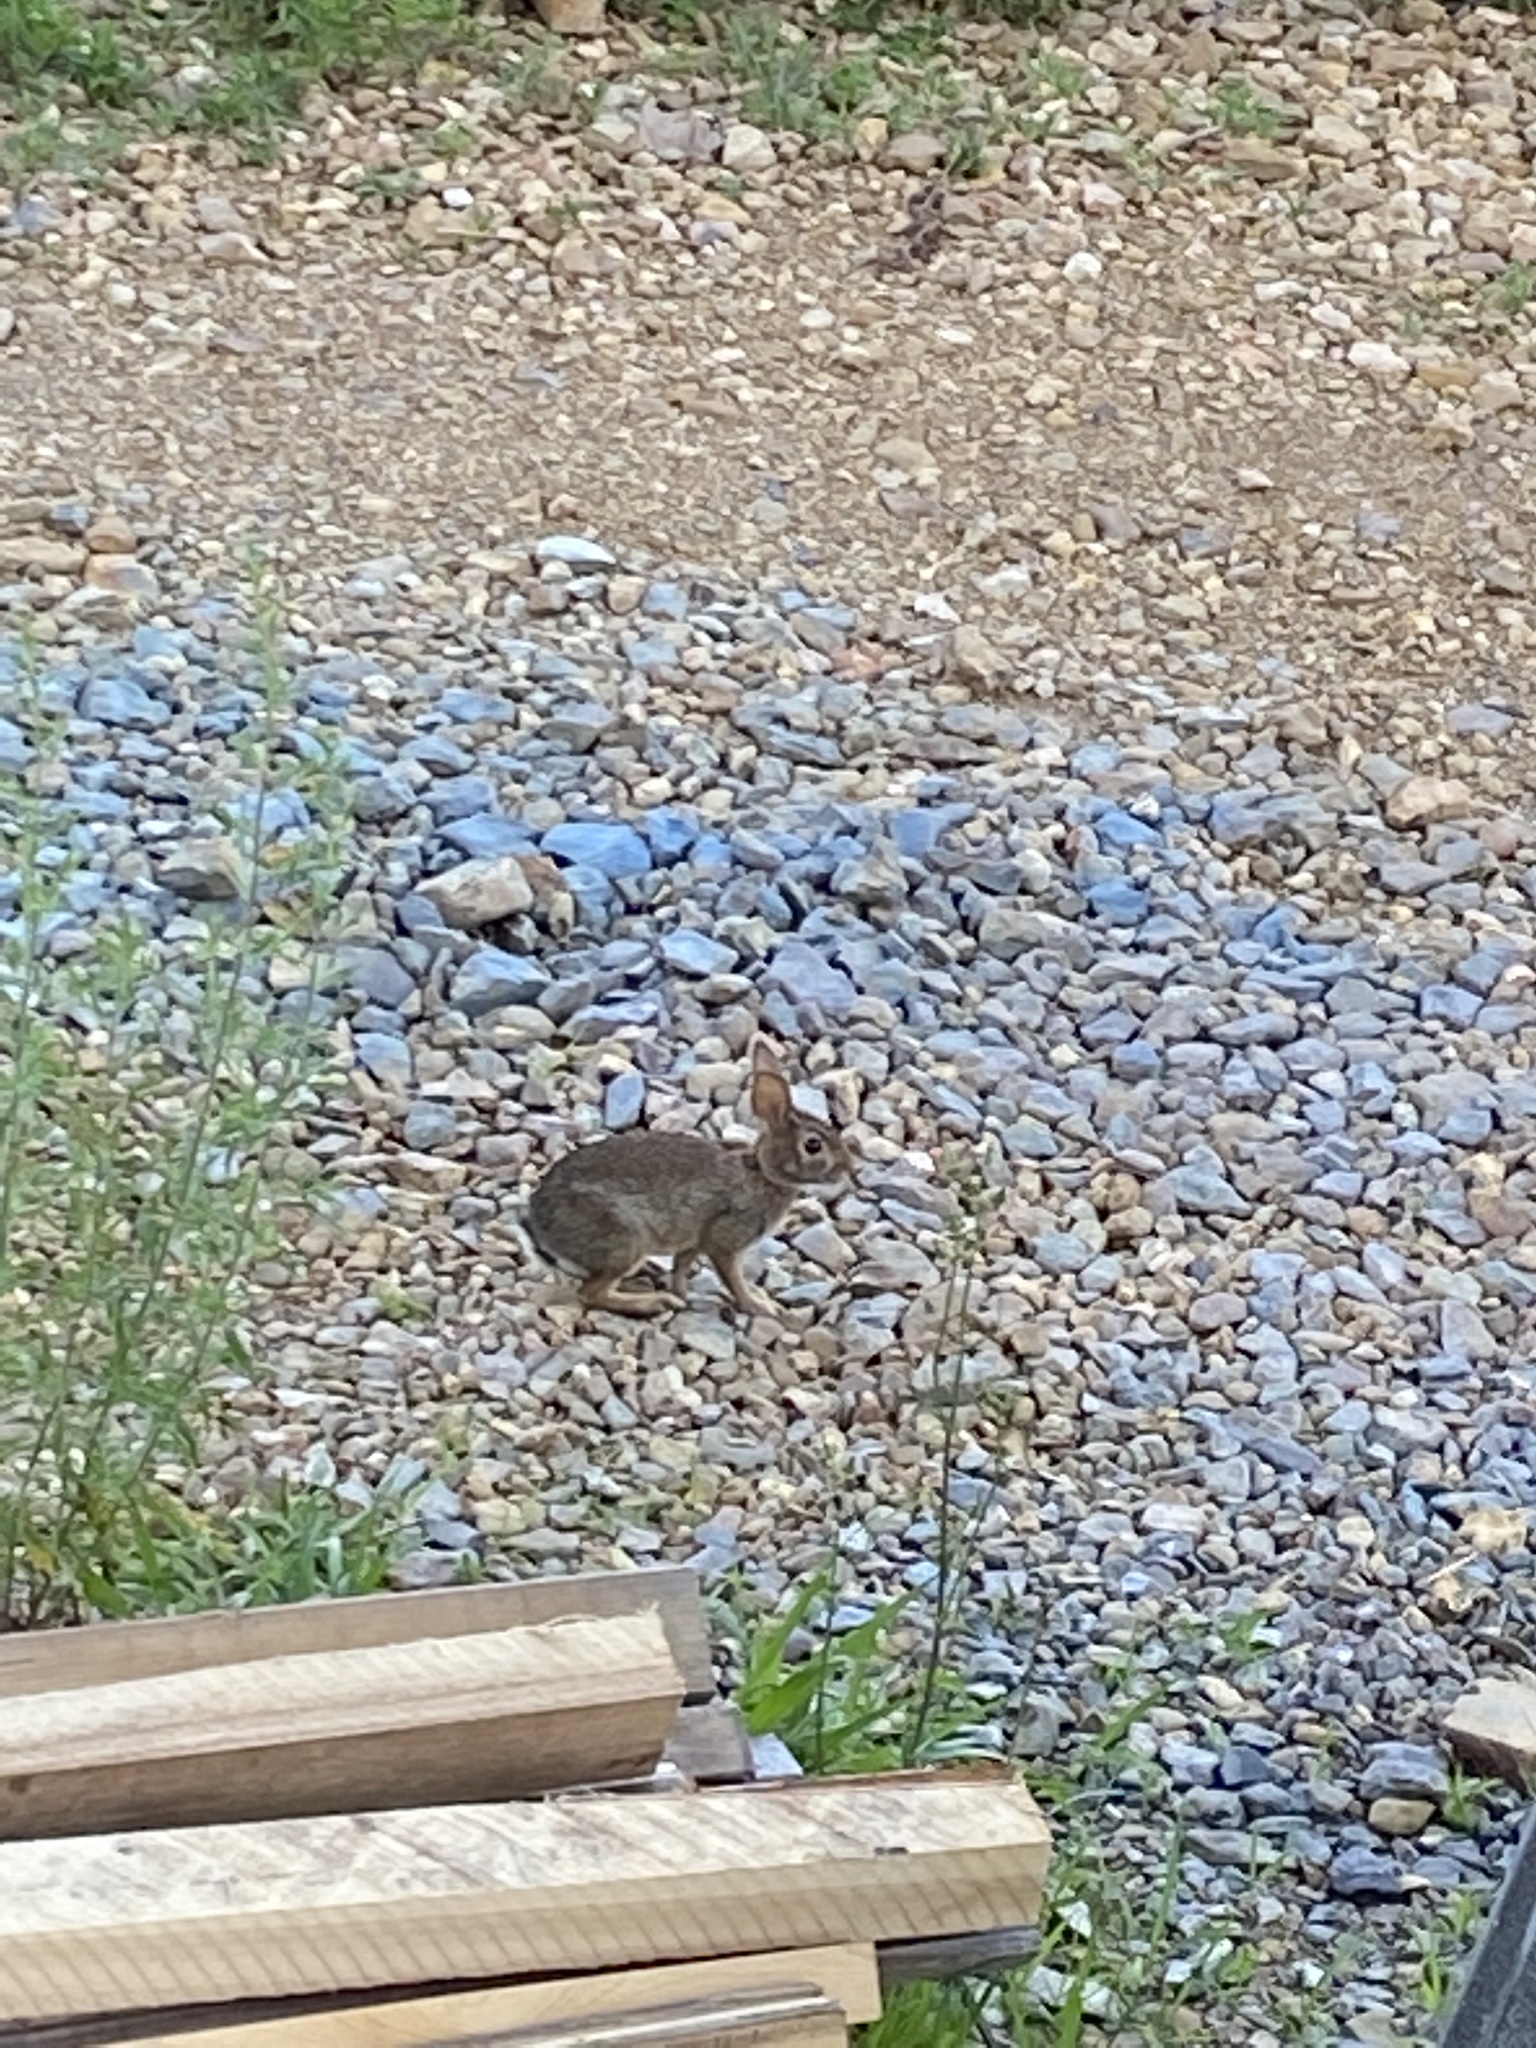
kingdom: Animalia
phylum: Chordata
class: Mammalia
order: Lagomorpha
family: Leporidae
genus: Sylvilagus
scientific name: Sylvilagus floridanus
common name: Eastern cottontail
